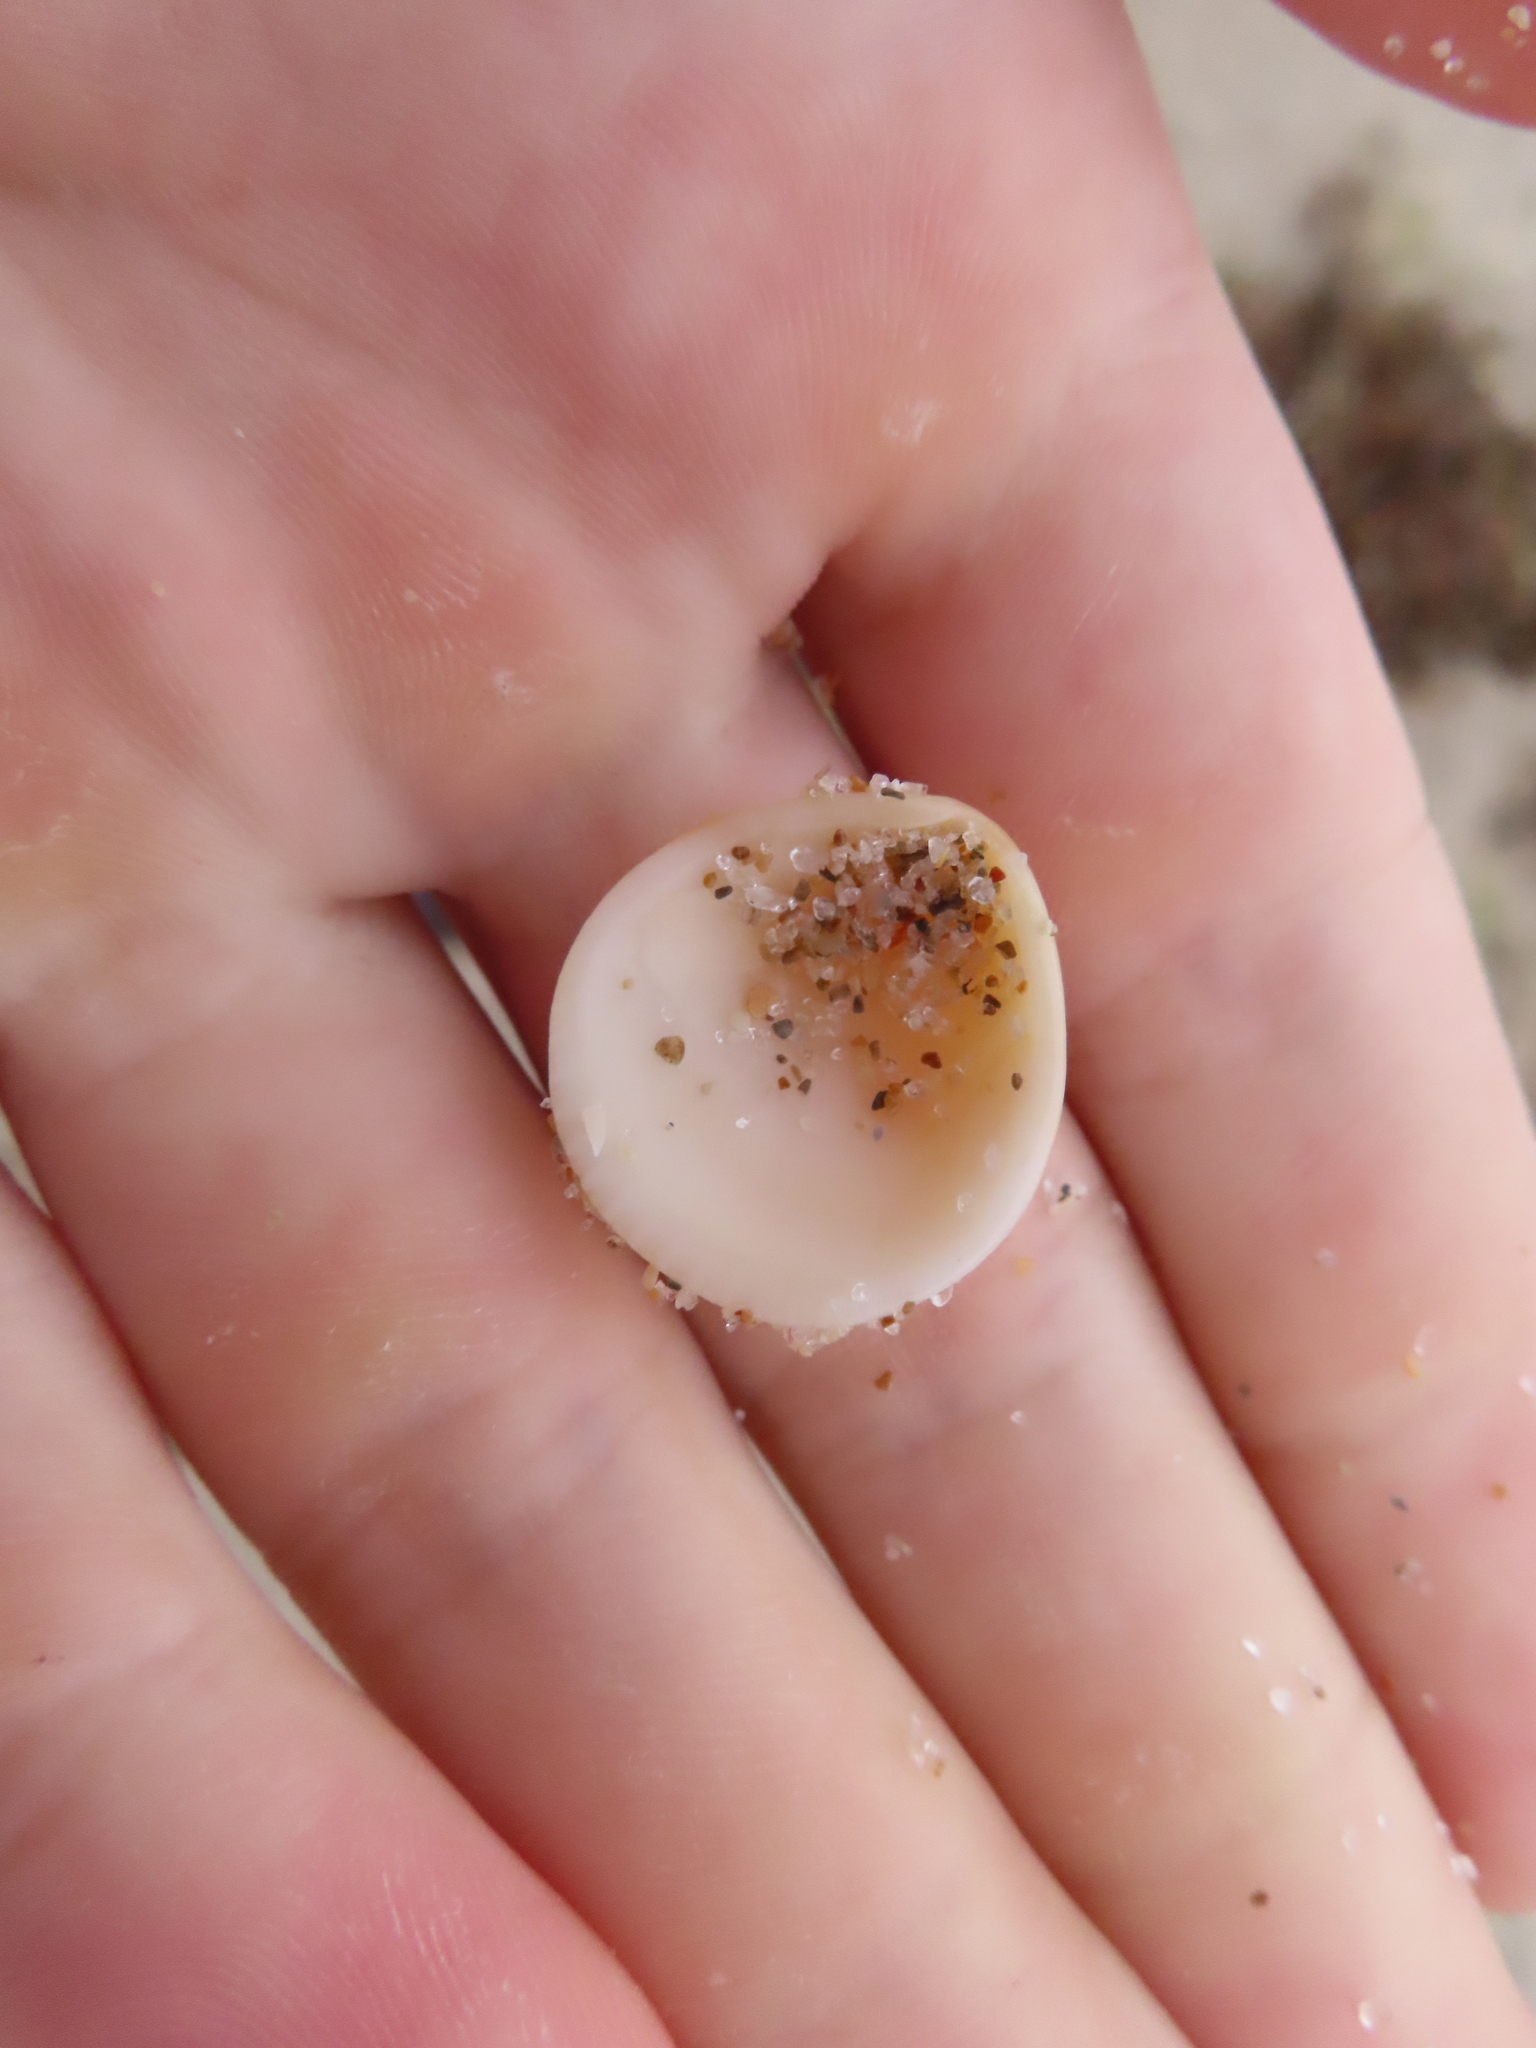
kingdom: Animalia
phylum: Mollusca
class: Bivalvia
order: Arcida
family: Glycymerididae
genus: Glycymeris
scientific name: Glycymeris spectralis
